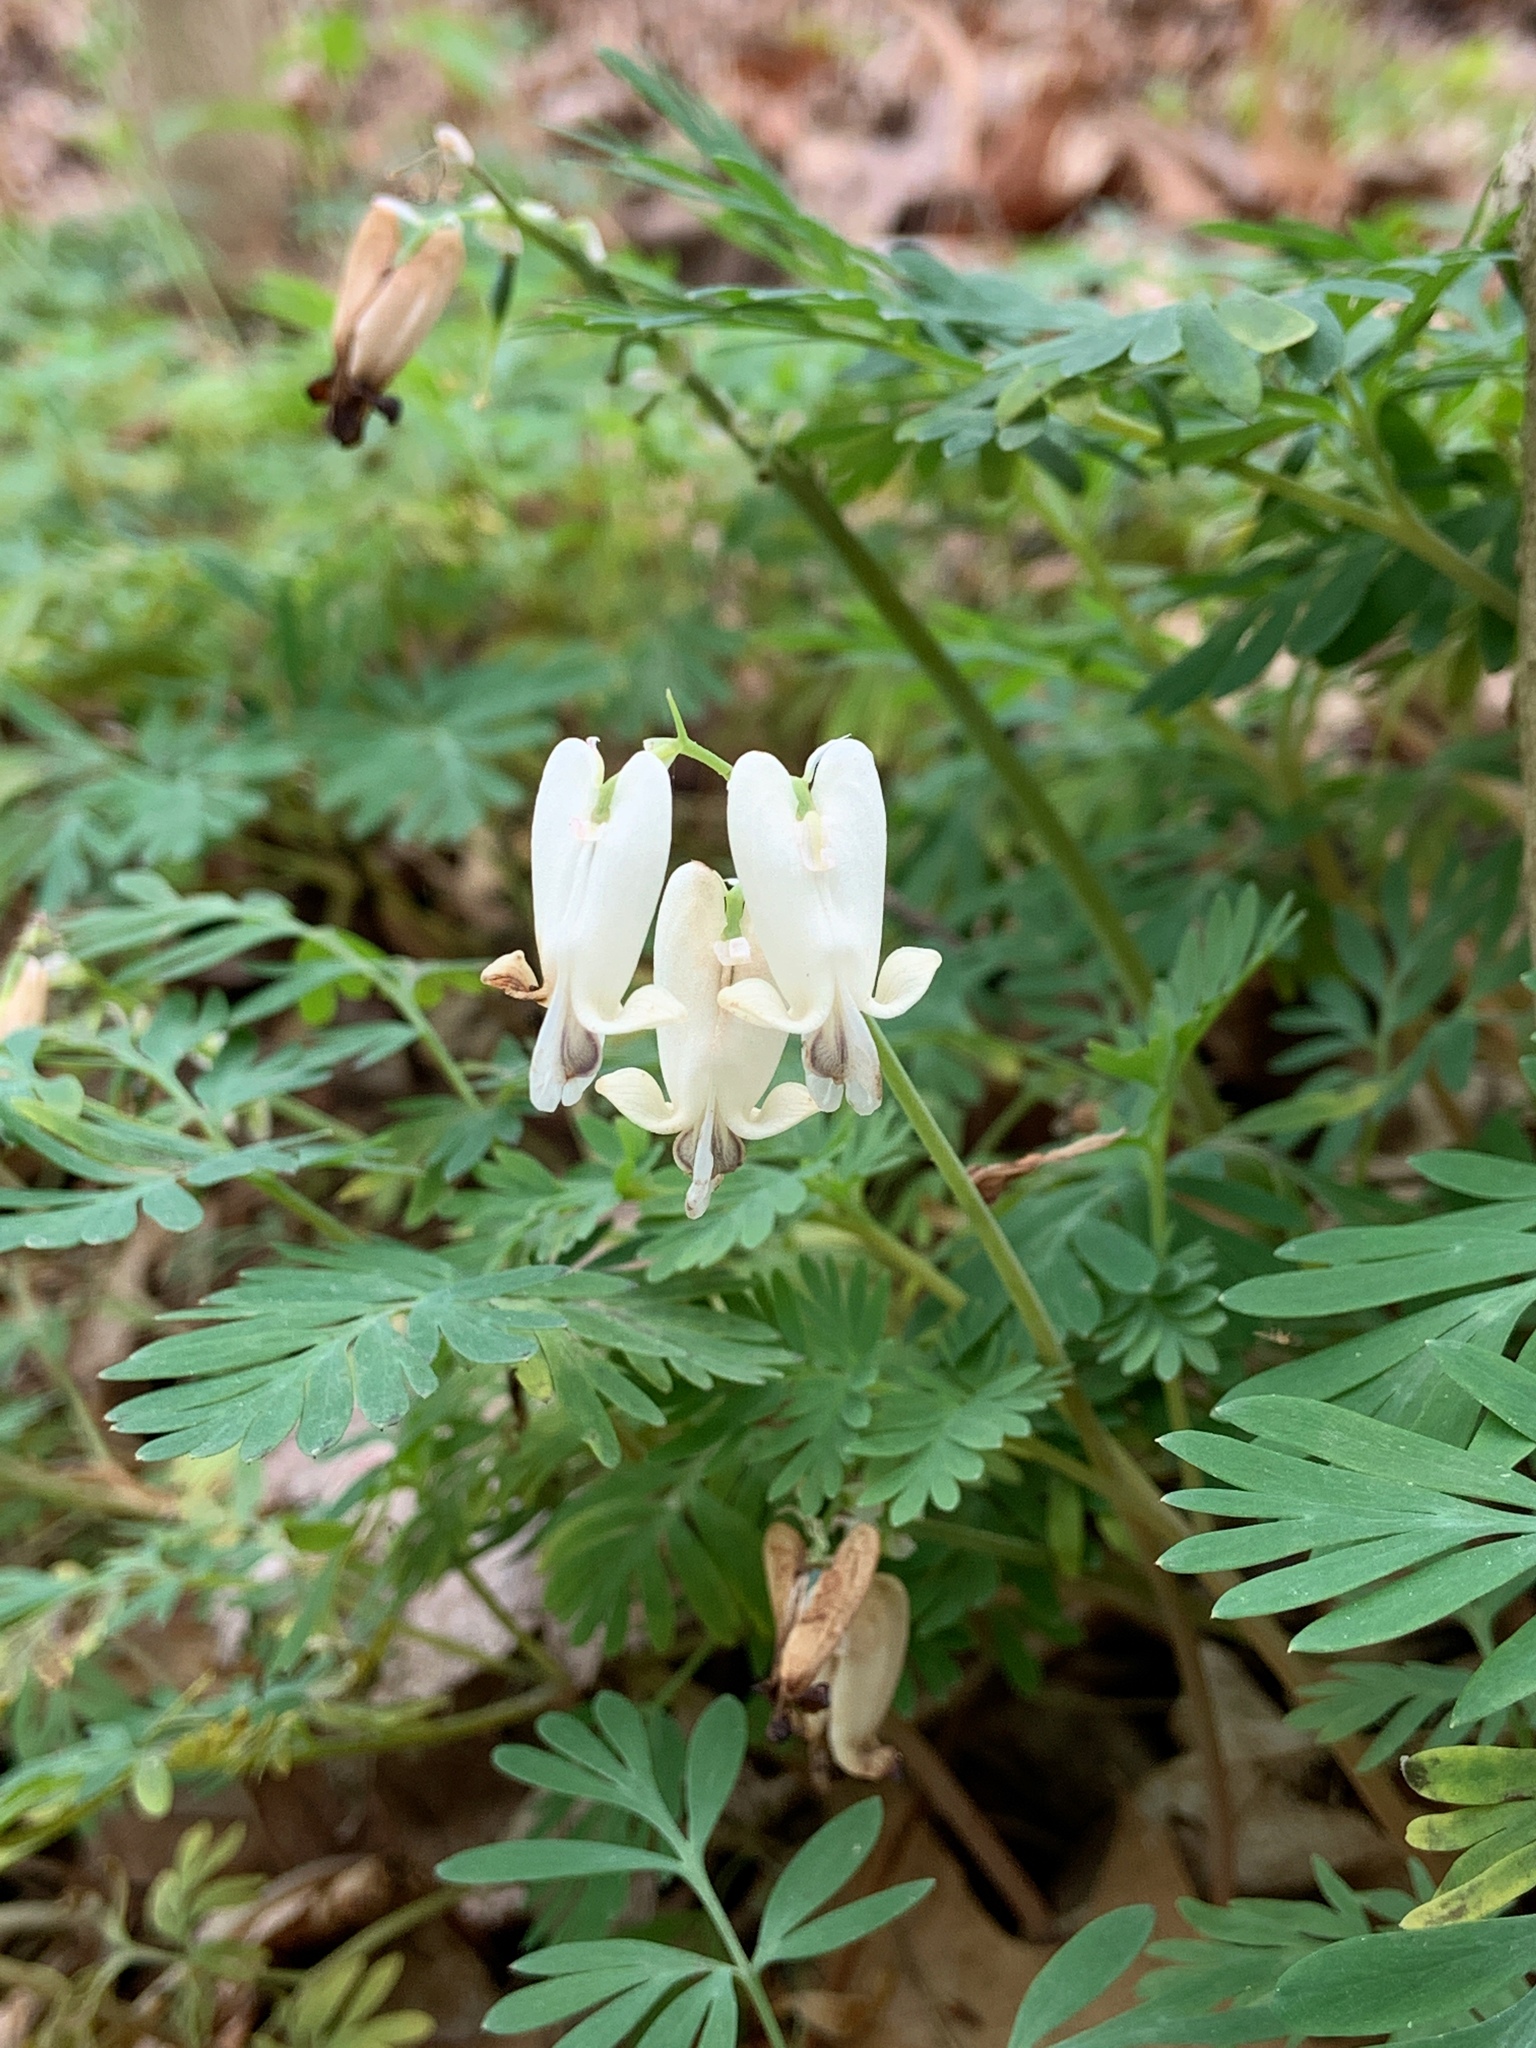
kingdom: Plantae
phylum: Tracheophyta
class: Magnoliopsida
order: Ranunculales
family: Papaveraceae
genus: Dicentra
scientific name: Dicentra canadensis
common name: Squirrel-corn
